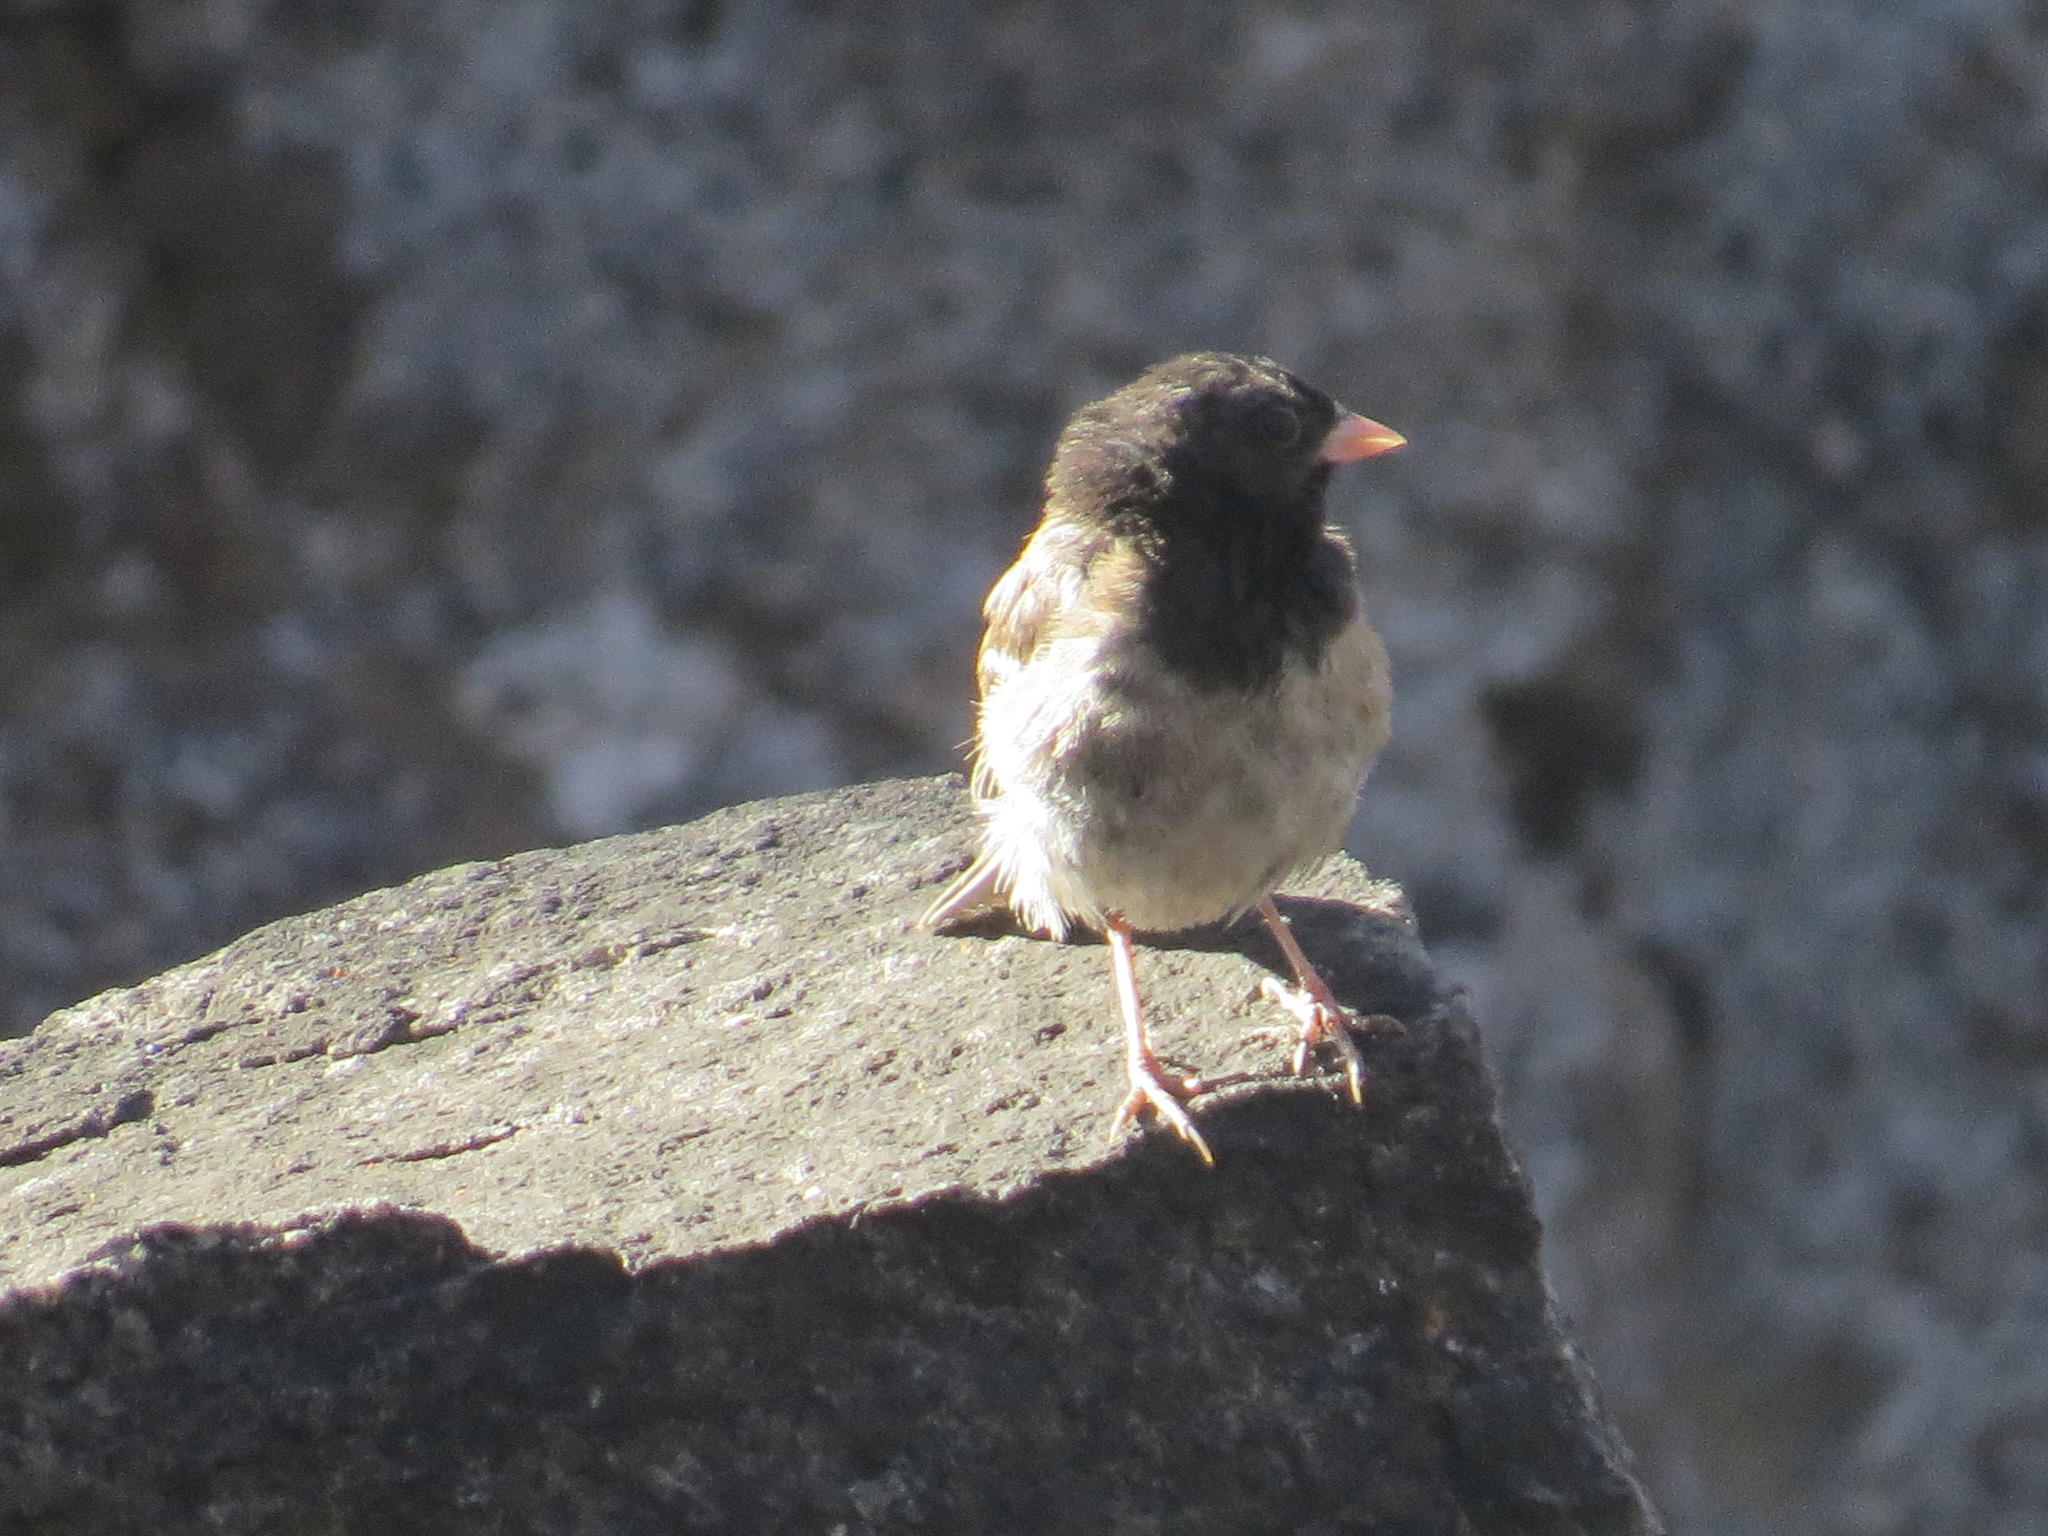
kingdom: Animalia
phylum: Chordata
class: Aves
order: Passeriformes
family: Passerellidae
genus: Junco
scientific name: Junco hyemalis
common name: Dark-eyed junco
